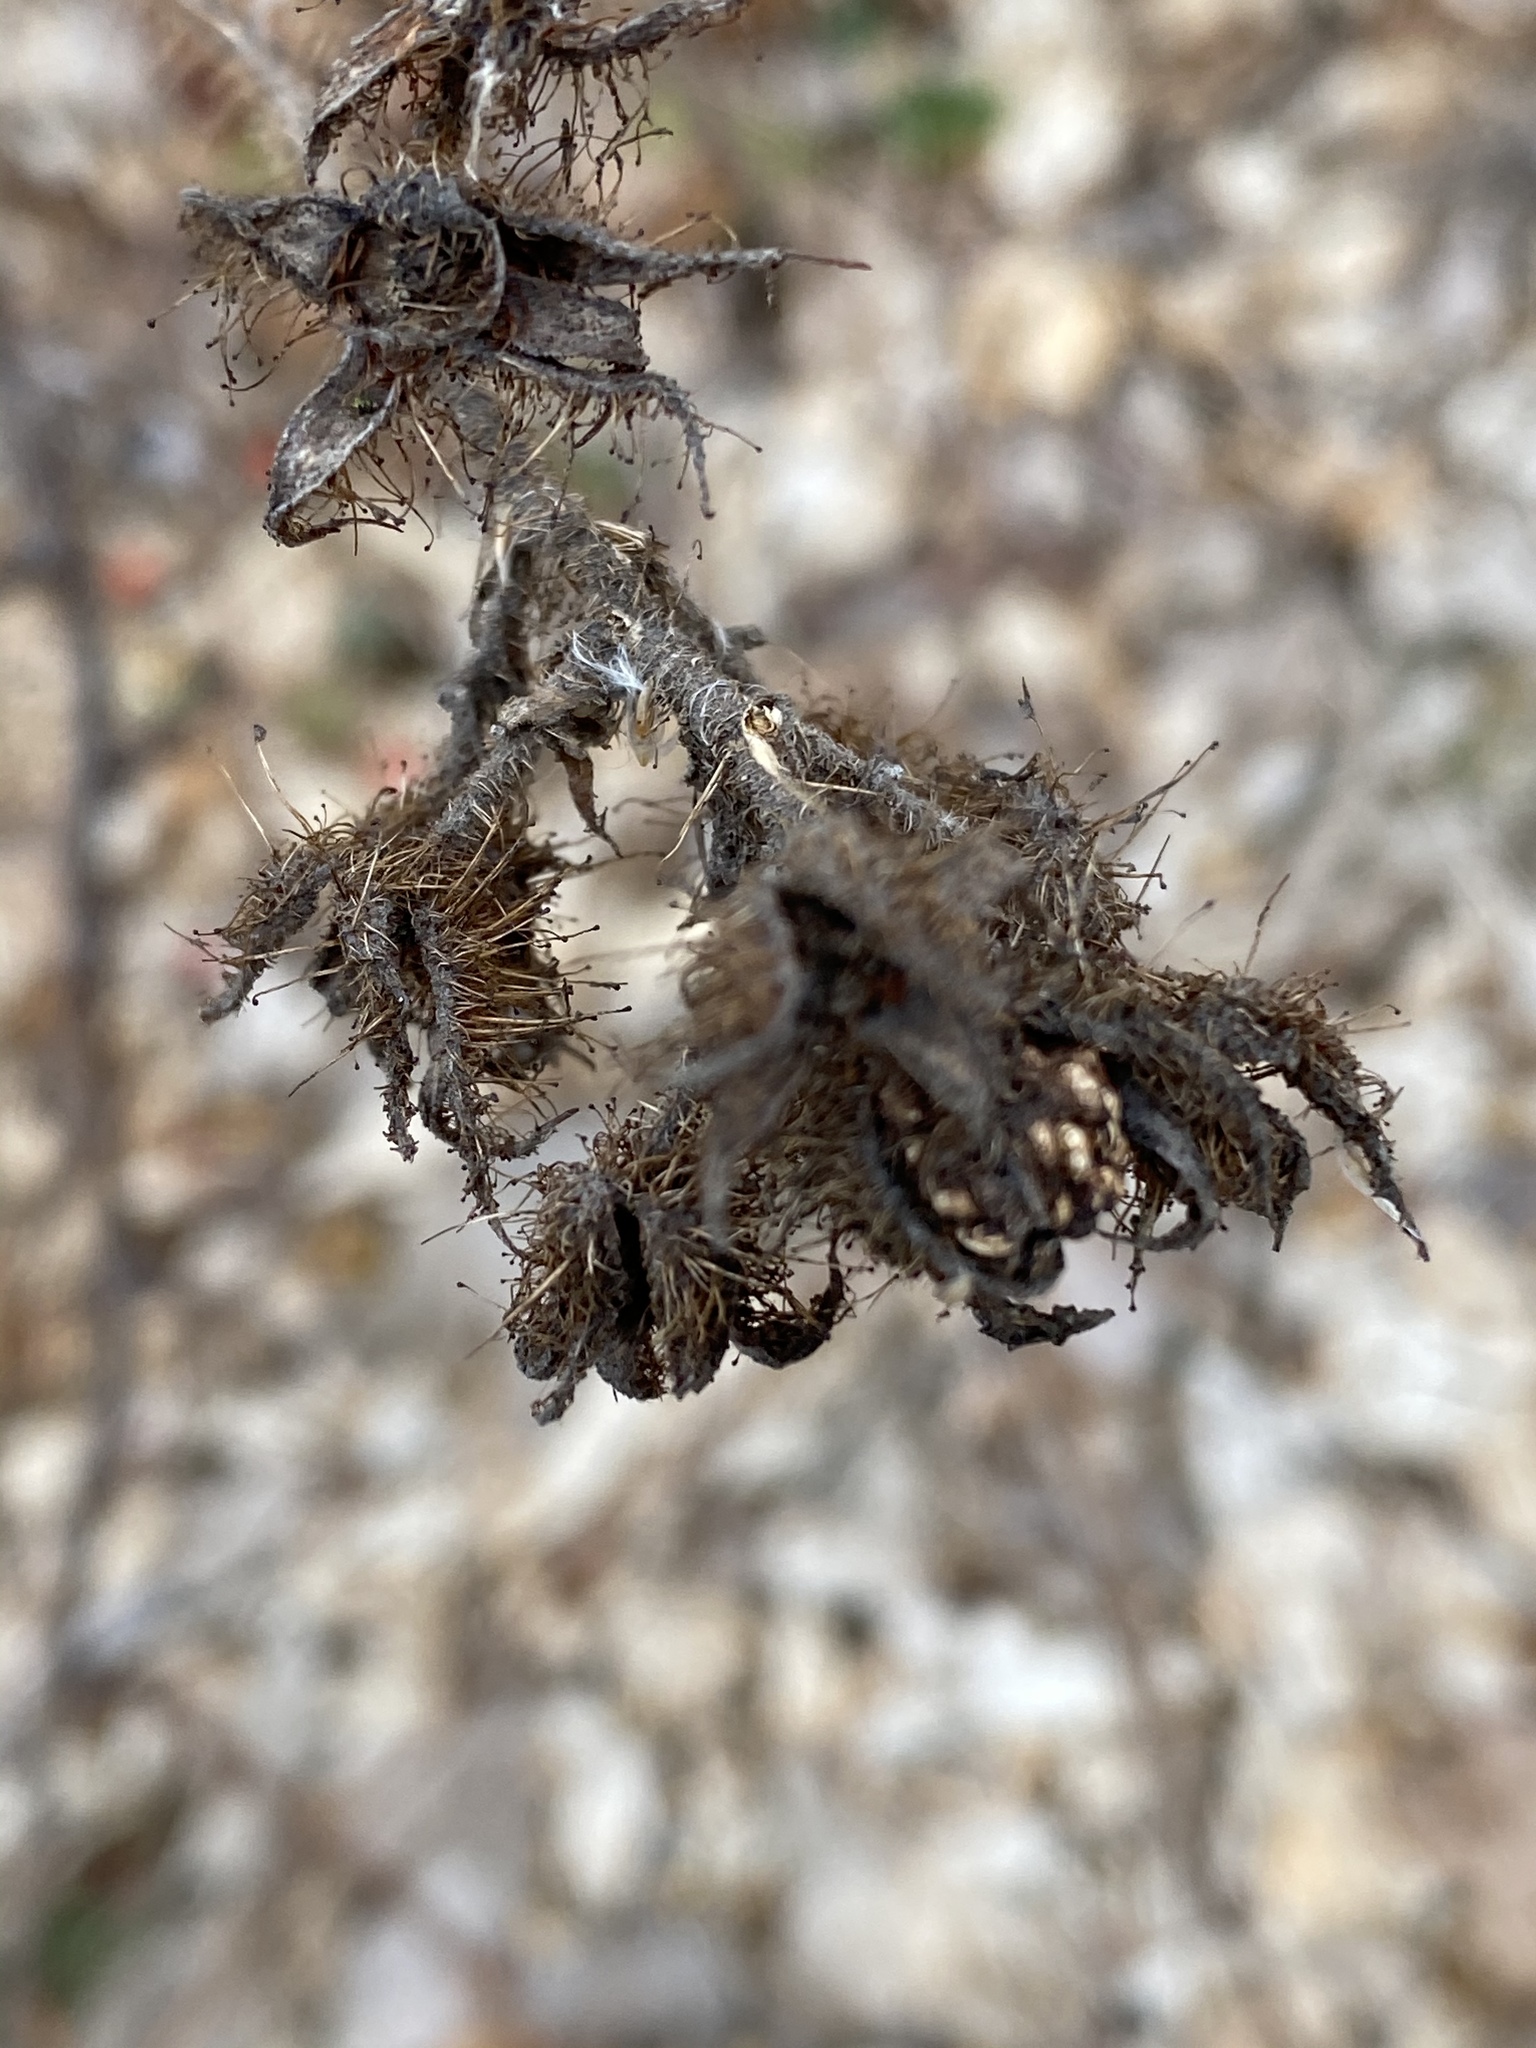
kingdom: Plantae
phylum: Tracheophyta
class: Magnoliopsida
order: Rosales
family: Rosaceae
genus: Rubus
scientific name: Rubus phoenicolasius
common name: Japanese wineberry
